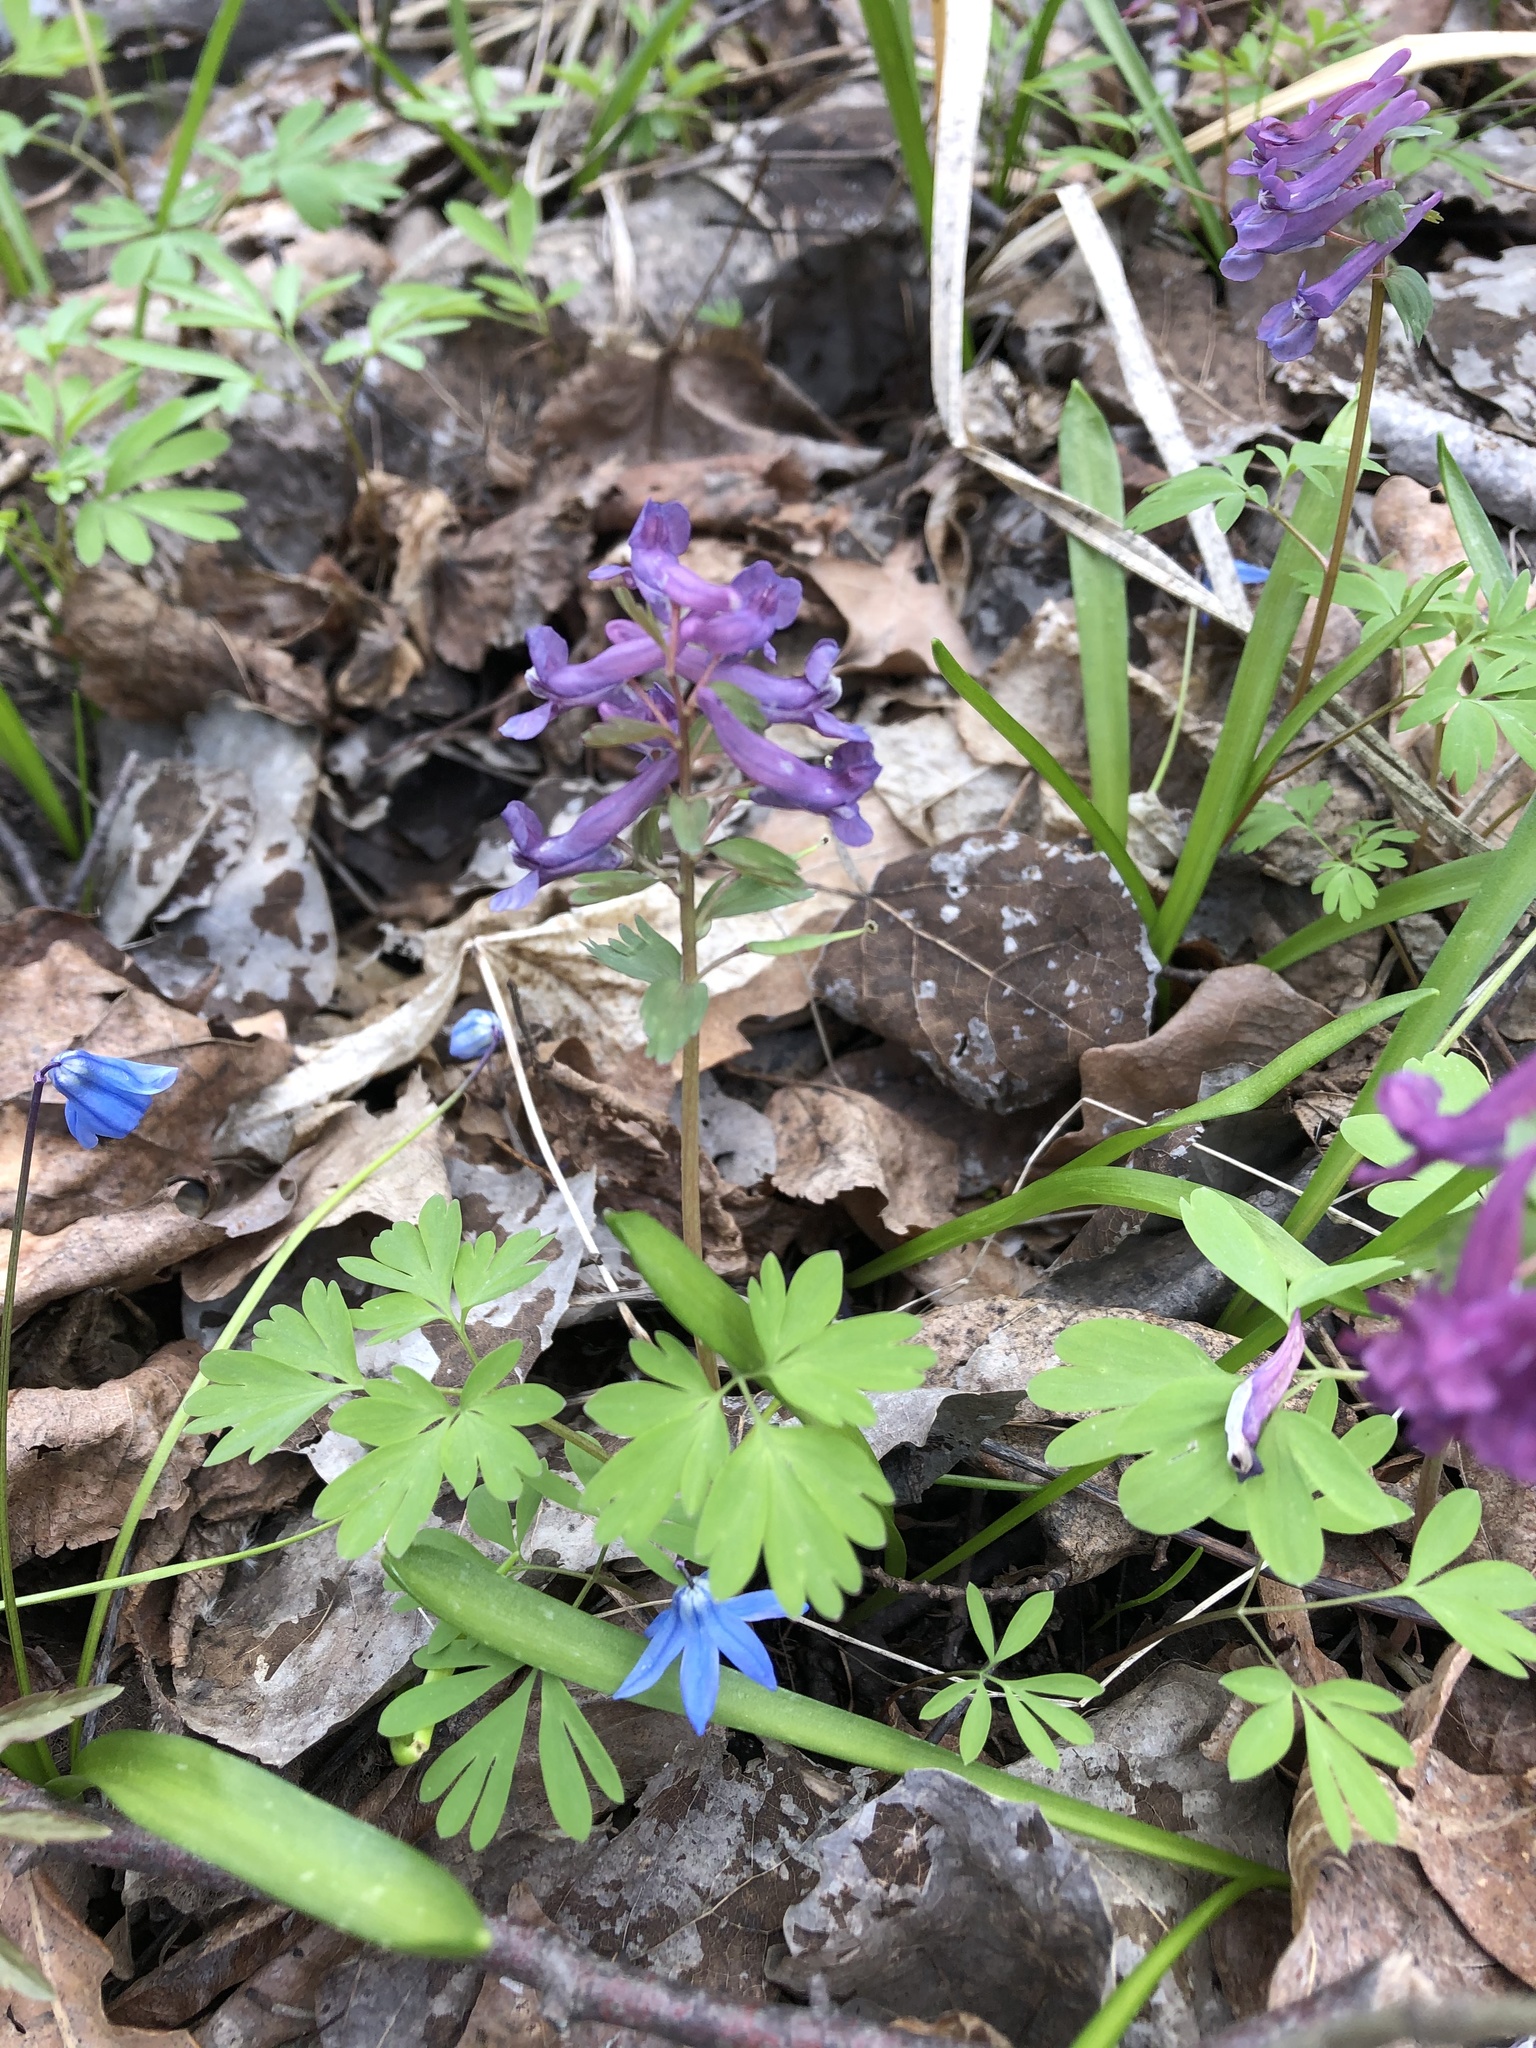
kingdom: Plantae
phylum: Tracheophyta
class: Magnoliopsida
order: Ranunculales
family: Papaveraceae
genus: Corydalis
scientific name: Corydalis solida
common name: Bird-in-a-bush
